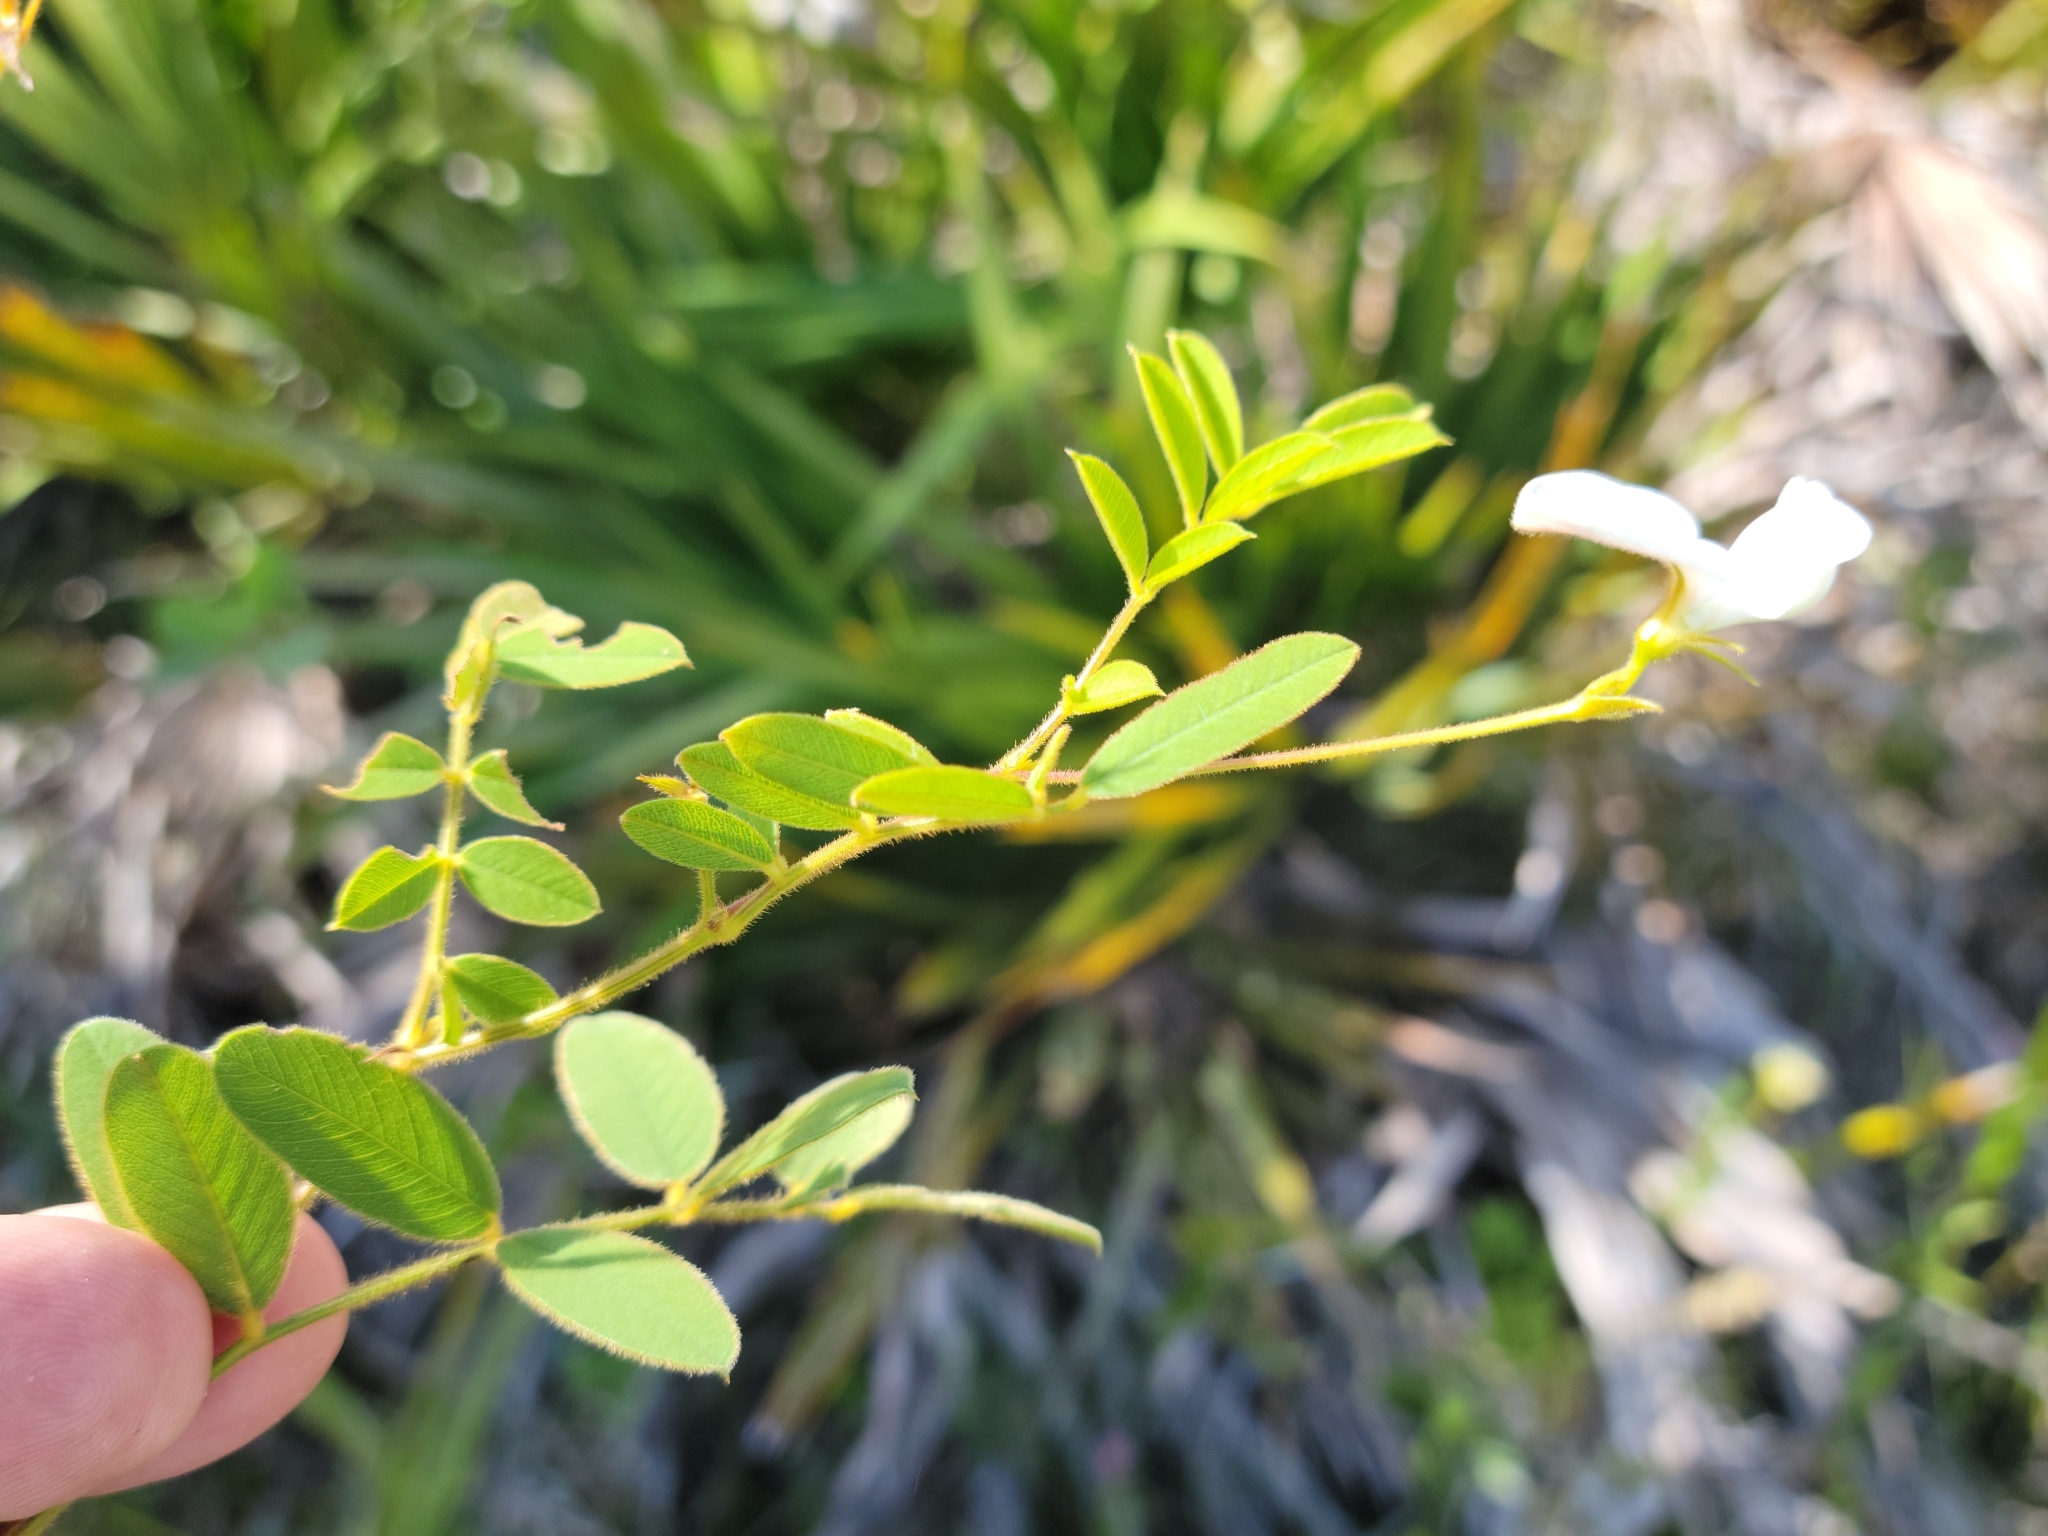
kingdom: Plantae
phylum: Tracheophyta
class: Magnoliopsida
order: Fabales
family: Fabaceae
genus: Tephrosia
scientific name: Tephrosia spicata
